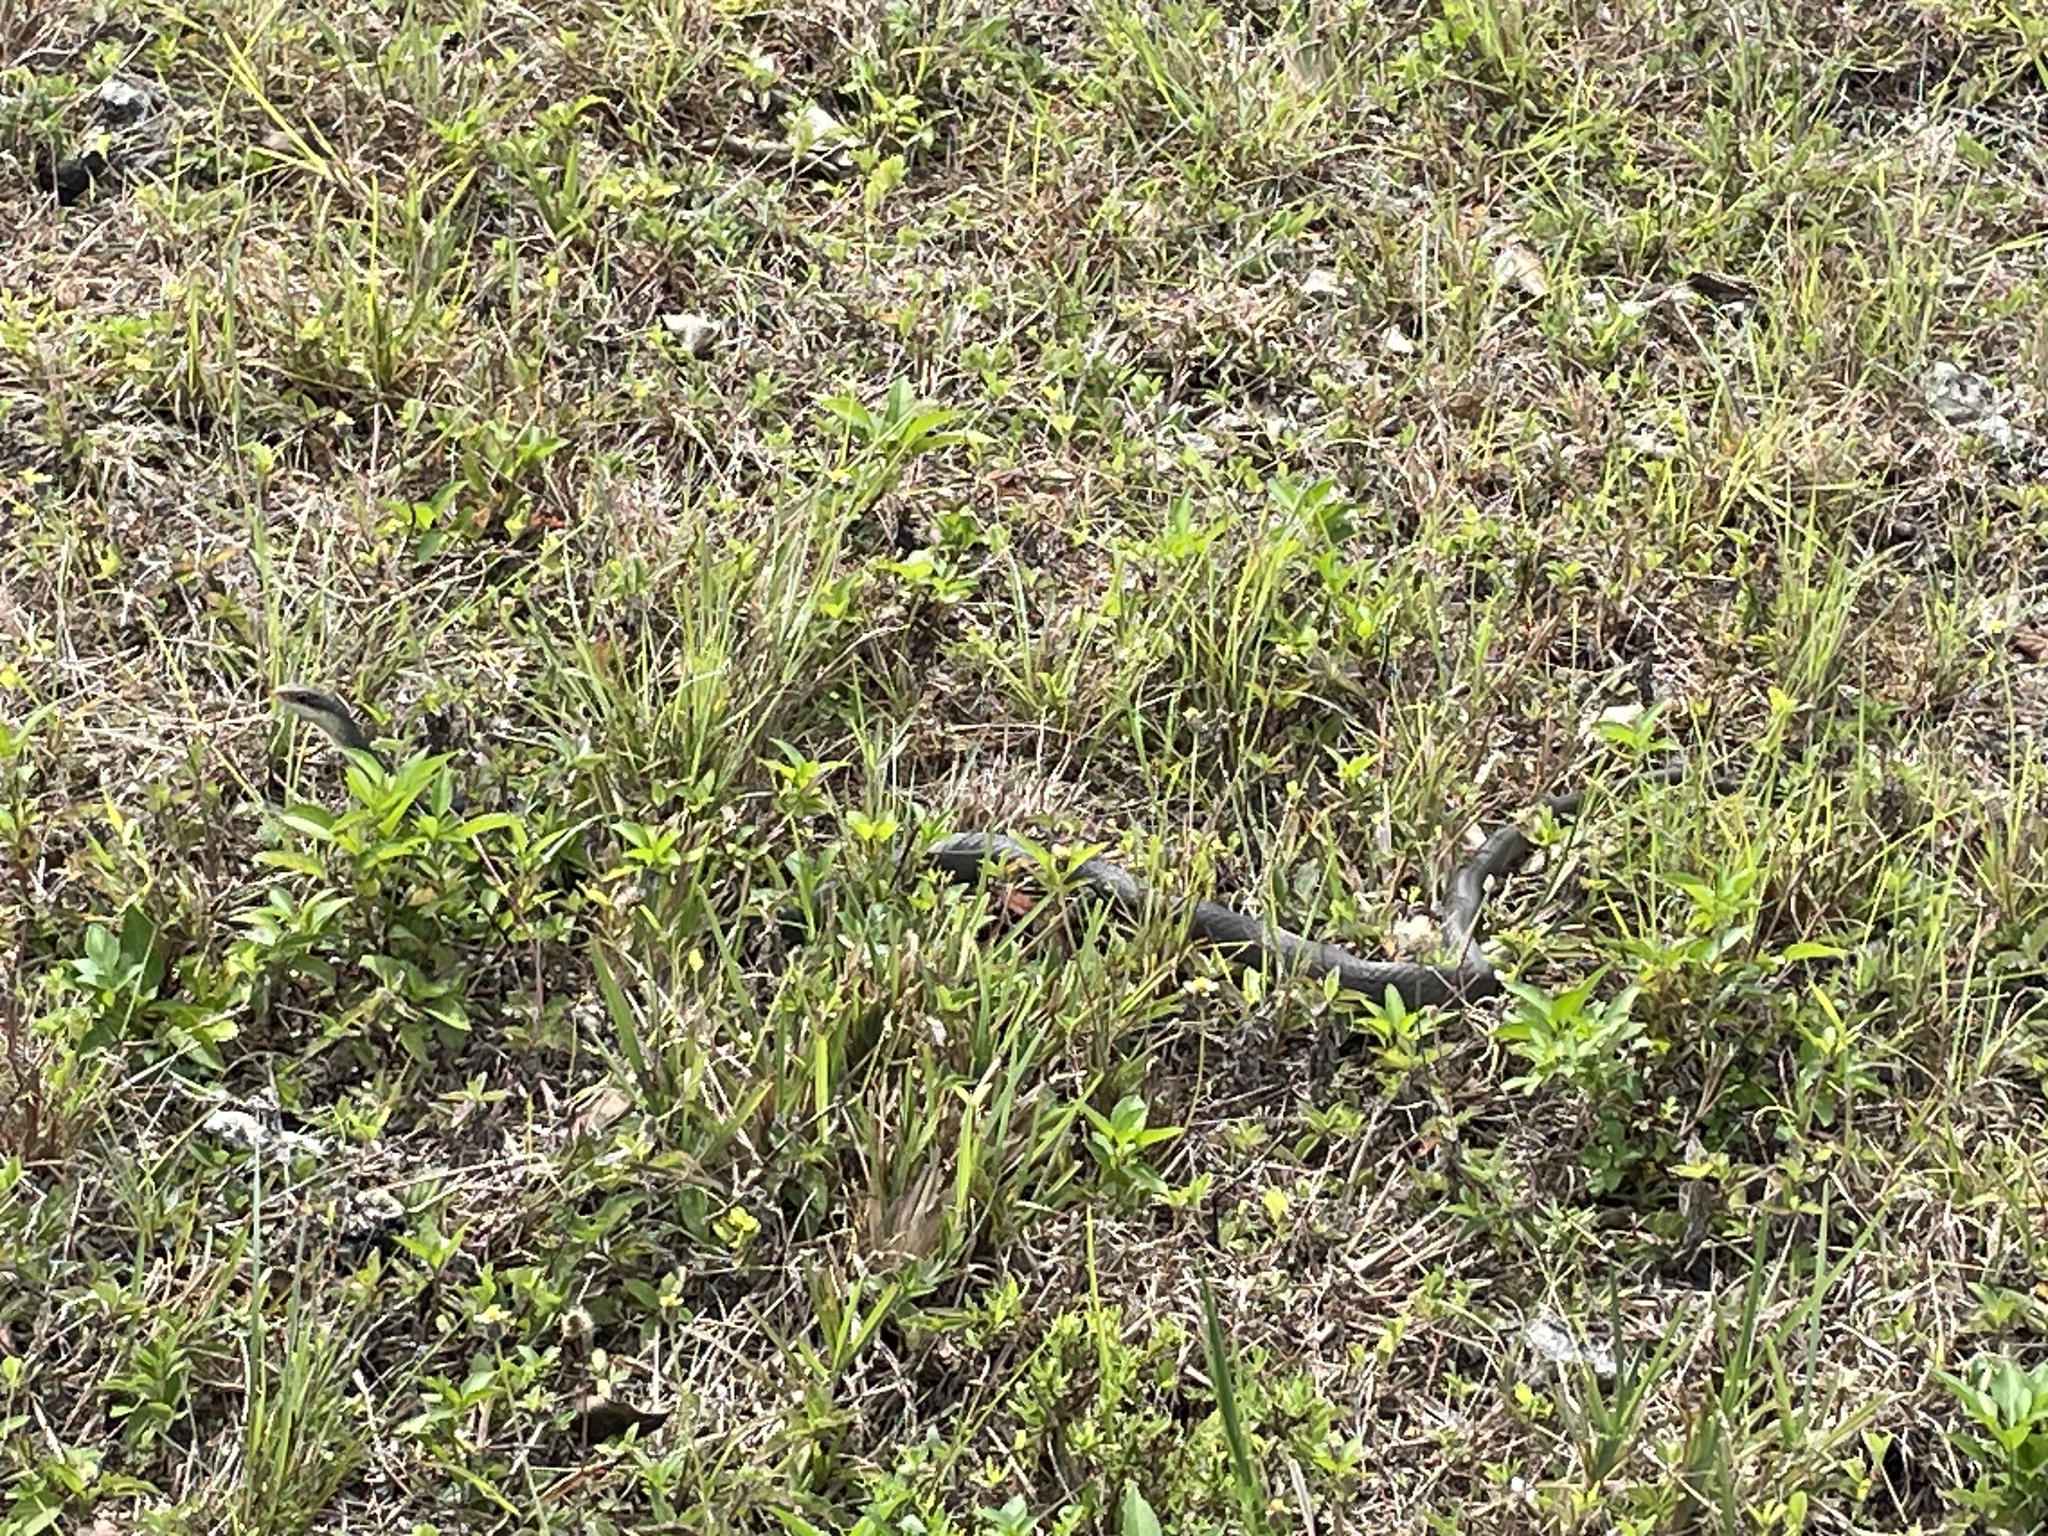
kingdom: Animalia
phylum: Chordata
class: Squamata
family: Colubridae
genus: Coluber
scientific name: Coluber constrictor
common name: Eastern racer
